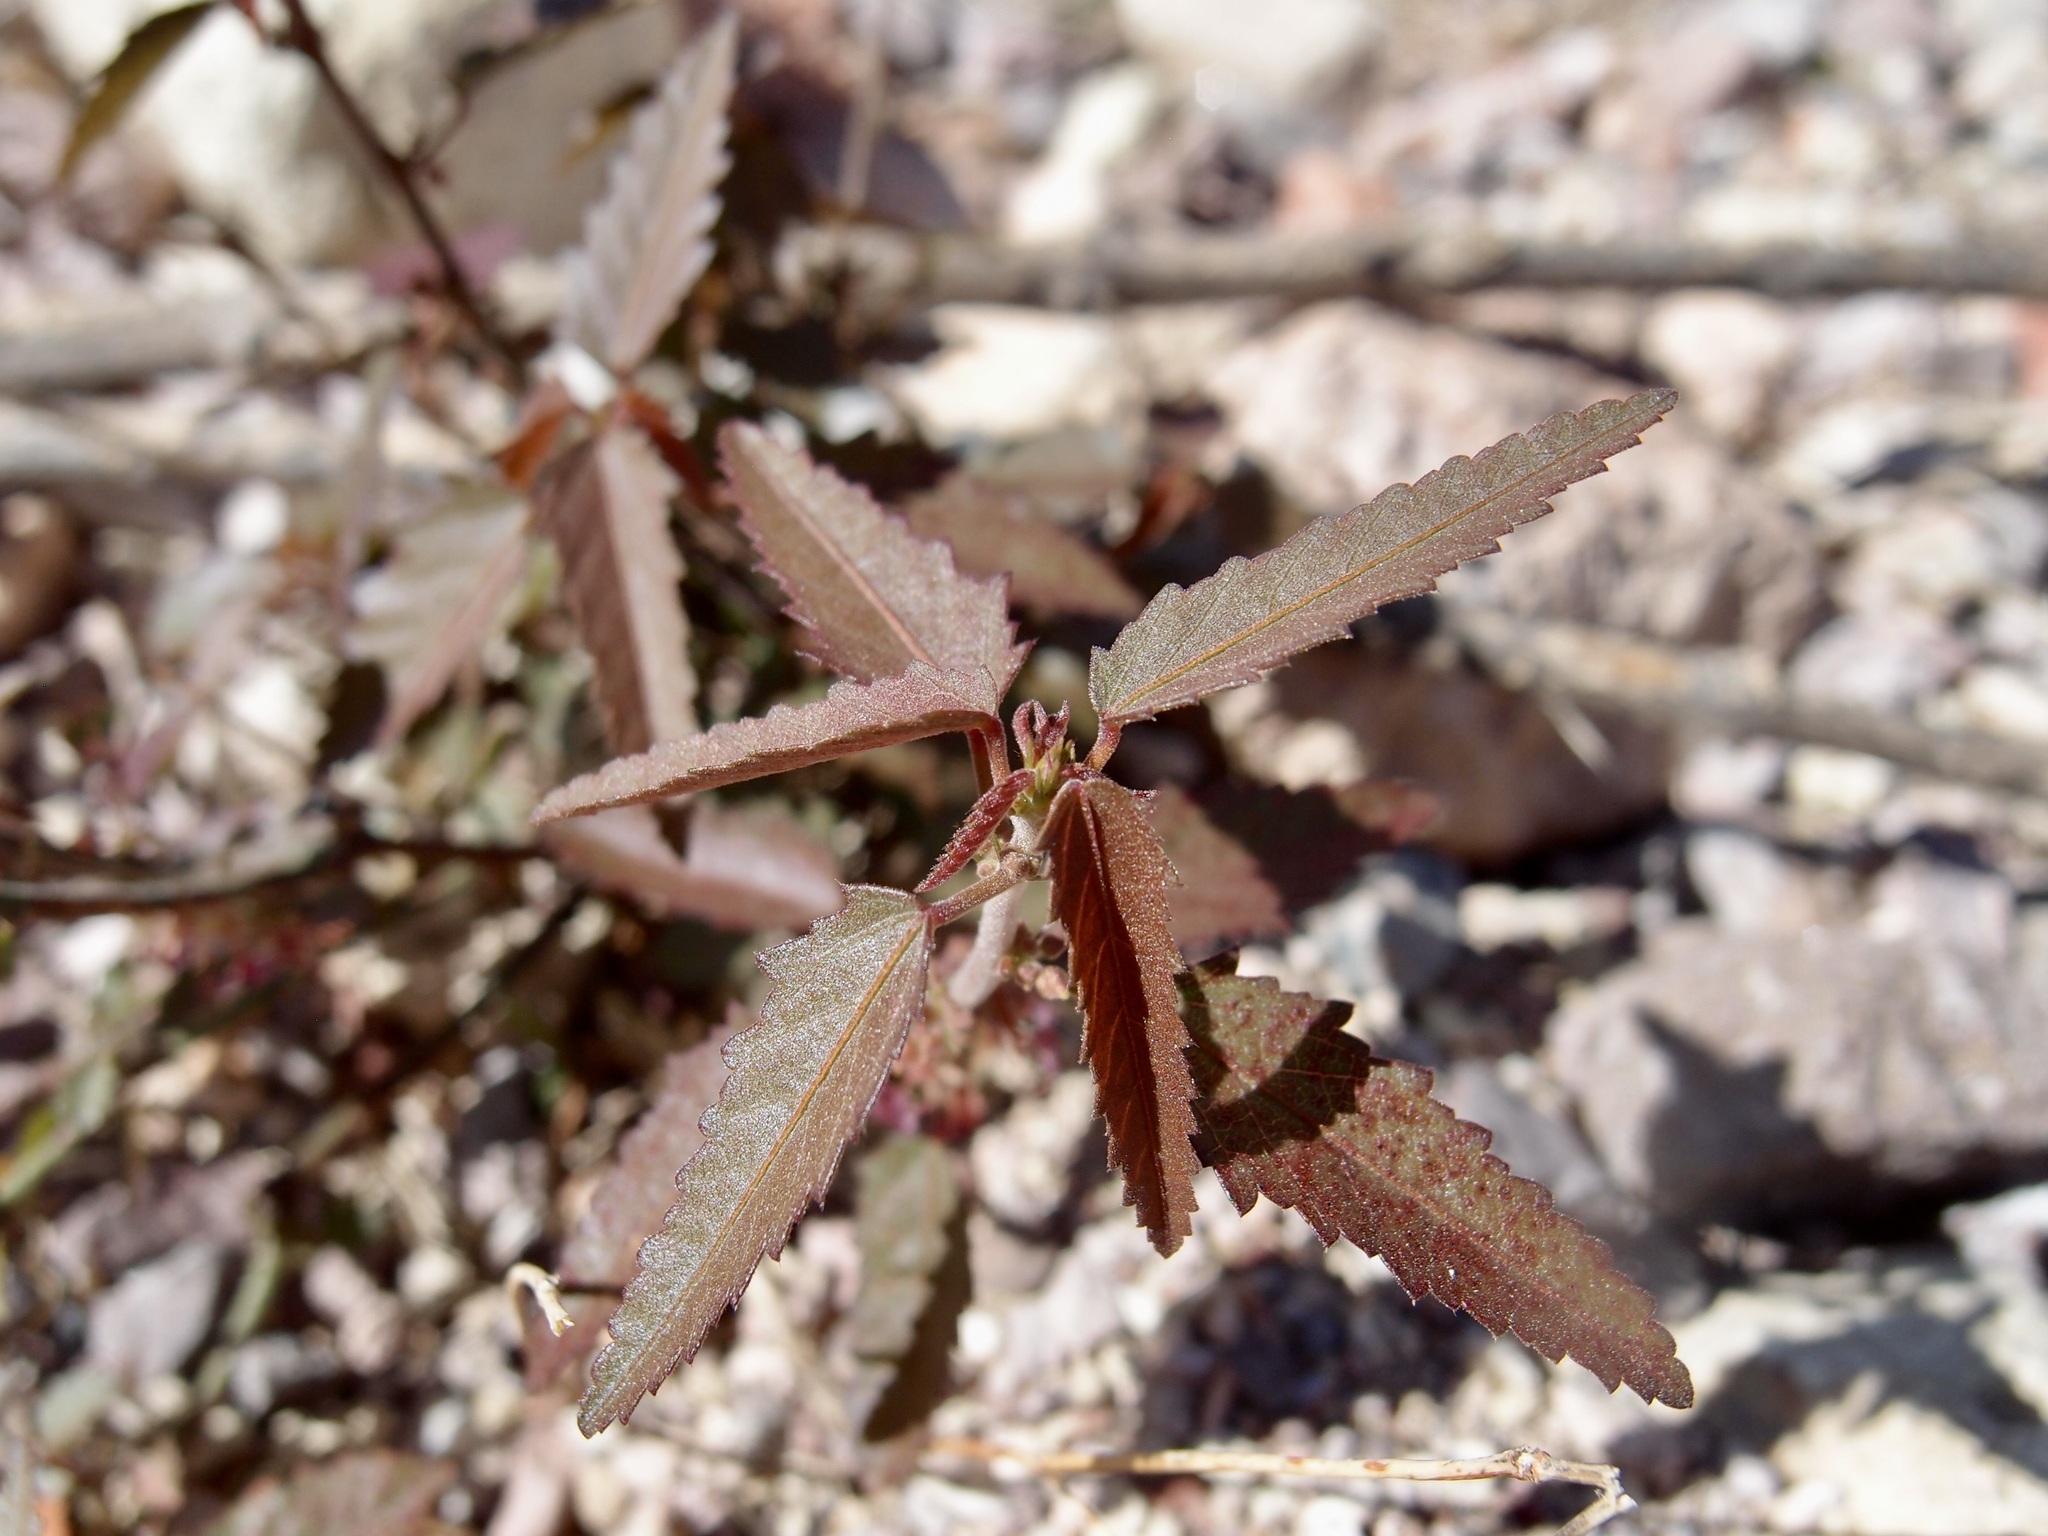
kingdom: Plantae
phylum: Tracheophyta
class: Magnoliopsida
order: Malvales
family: Malvaceae
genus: Ayenia
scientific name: Ayenia filiformis
